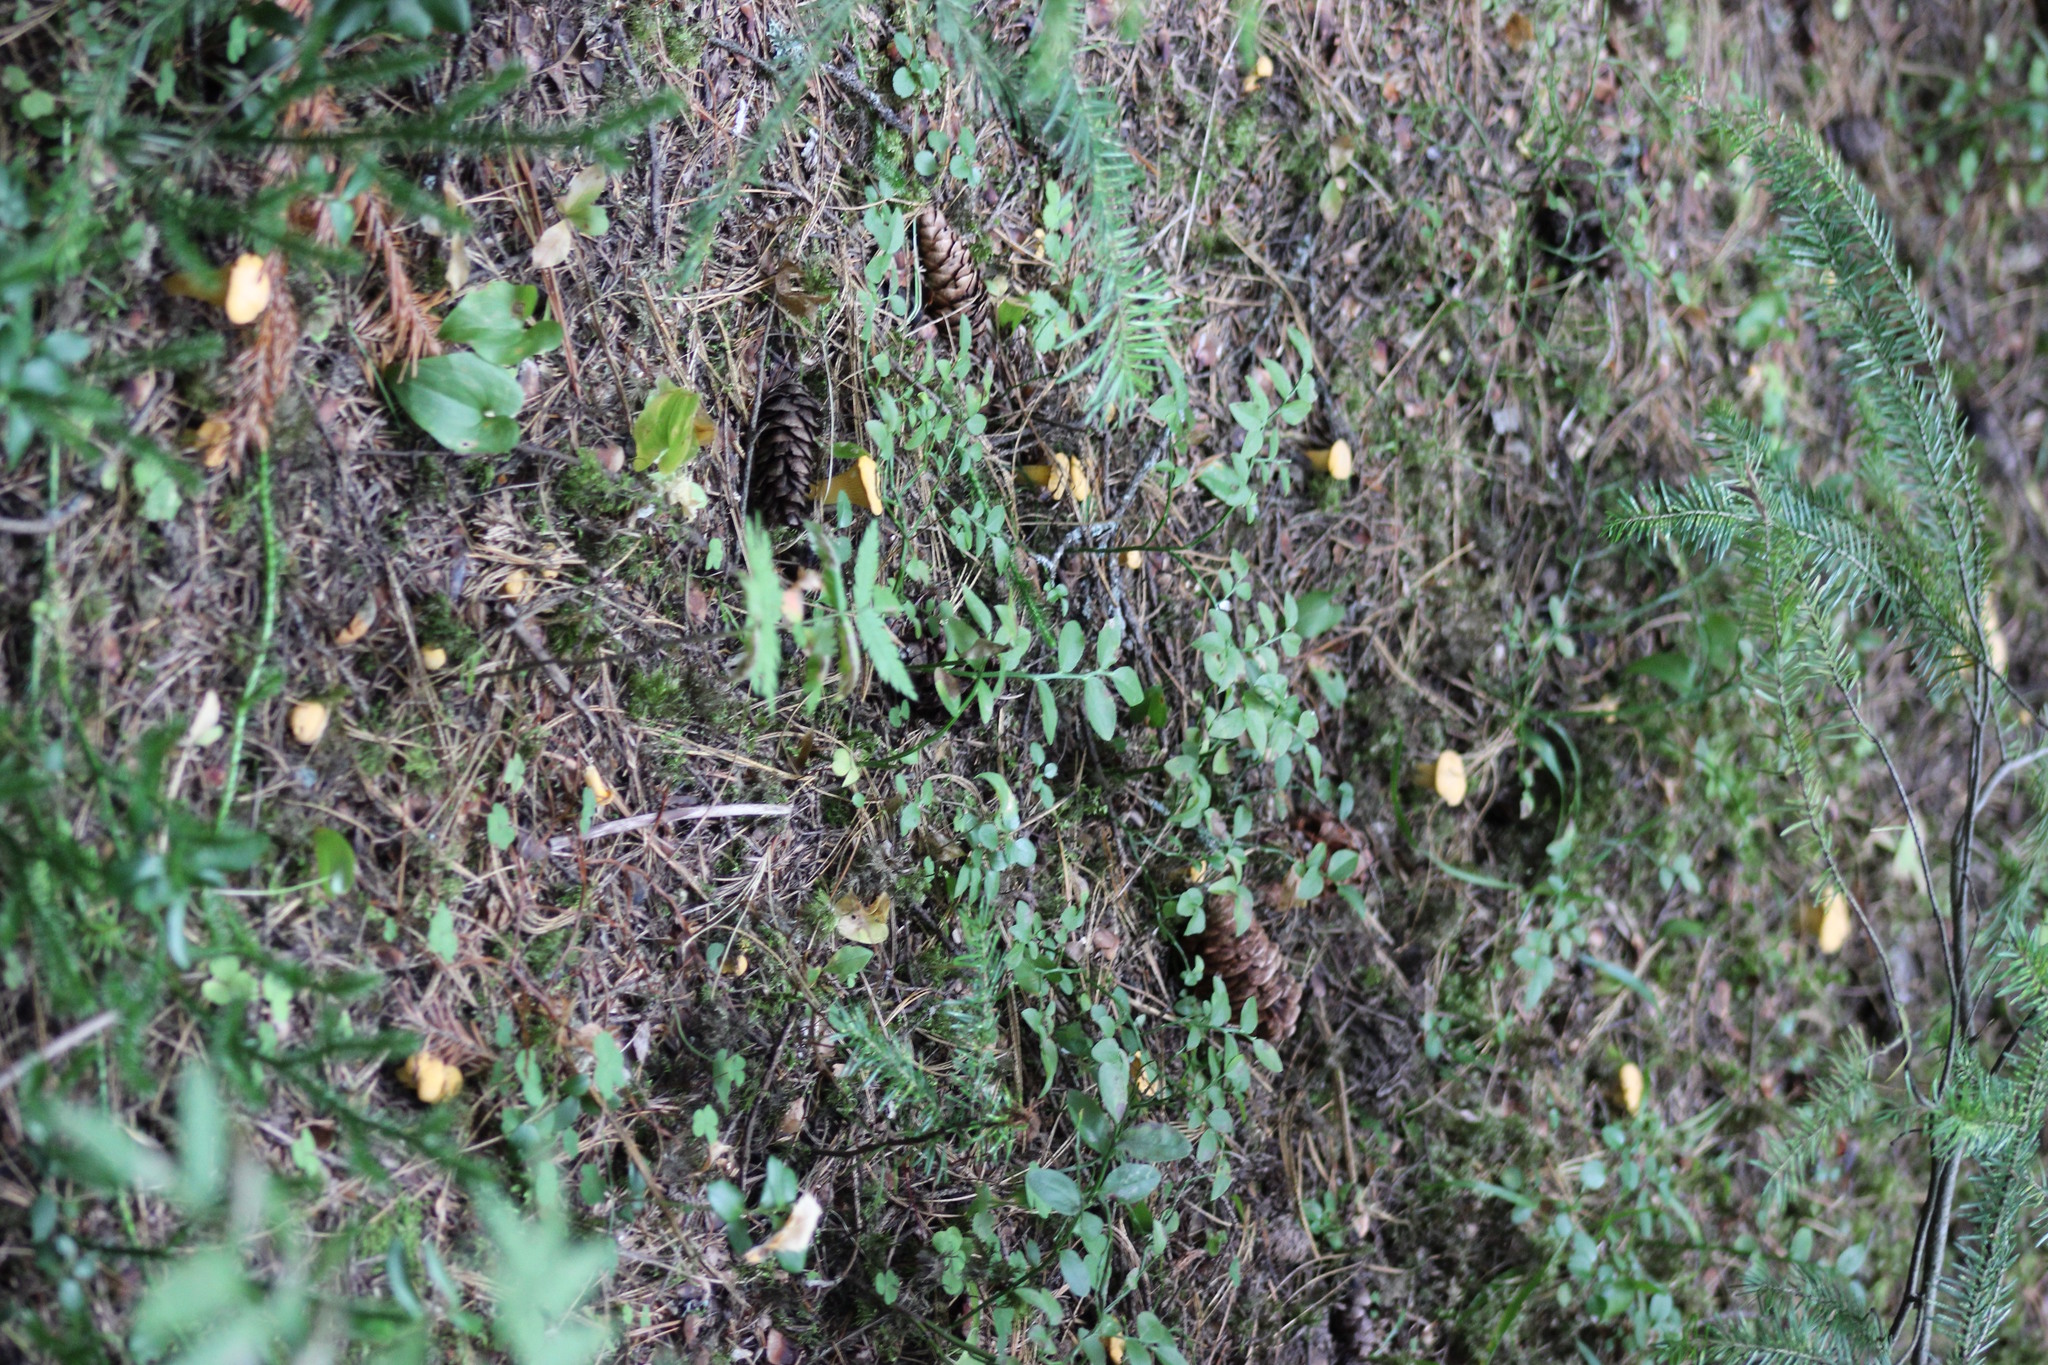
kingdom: Fungi
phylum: Basidiomycota
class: Agaricomycetes
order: Cantharellales
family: Hydnaceae
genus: Cantharellus
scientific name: Cantharellus cibarius
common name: Chanterelle
